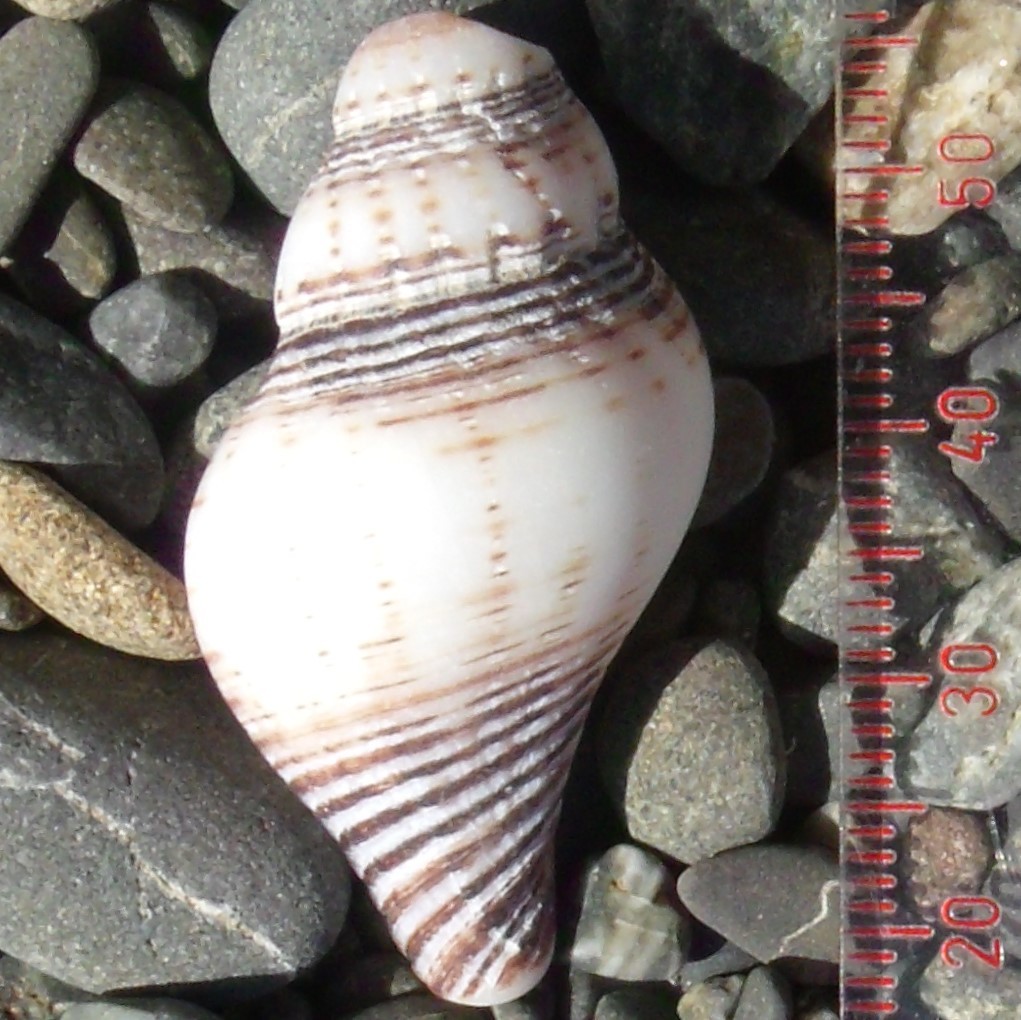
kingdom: Animalia
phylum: Mollusca
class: Gastropoda
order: Neogastropoda
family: Austrosiphonidae
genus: Penion
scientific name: Penion sulcatus
